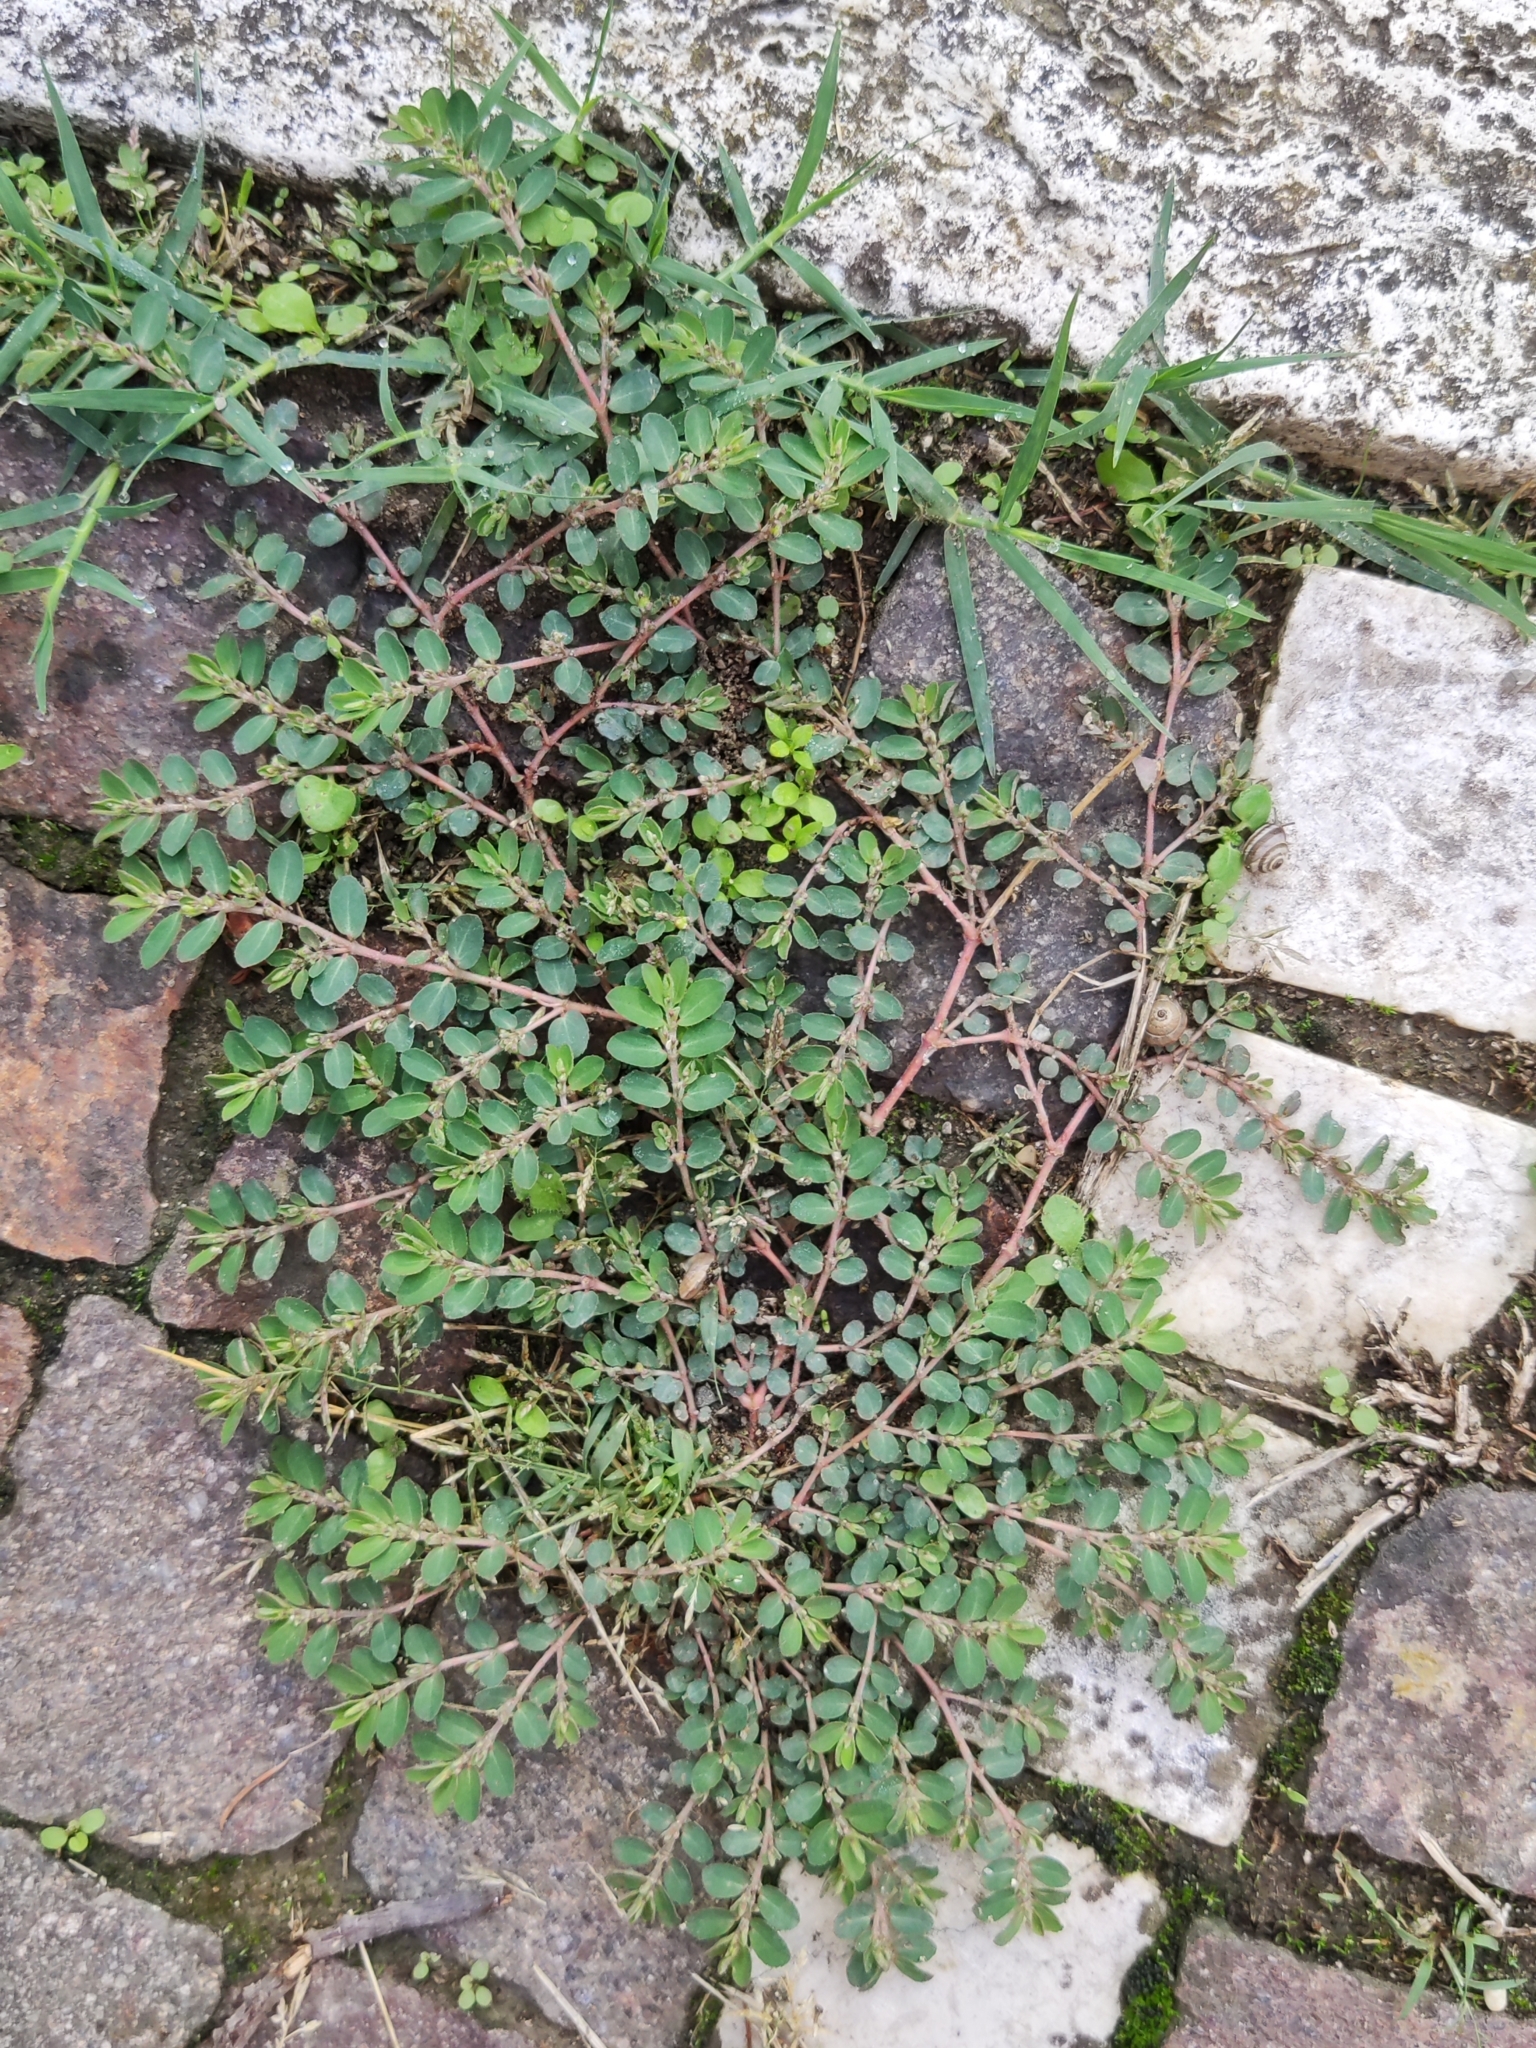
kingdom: Plantae
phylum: Tracheophyta
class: Magnoliopsida
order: Malpighiales
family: Euphorbiaceae
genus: Euphorbia
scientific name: Euphorbia prostrata
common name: Prostrate sandmat
